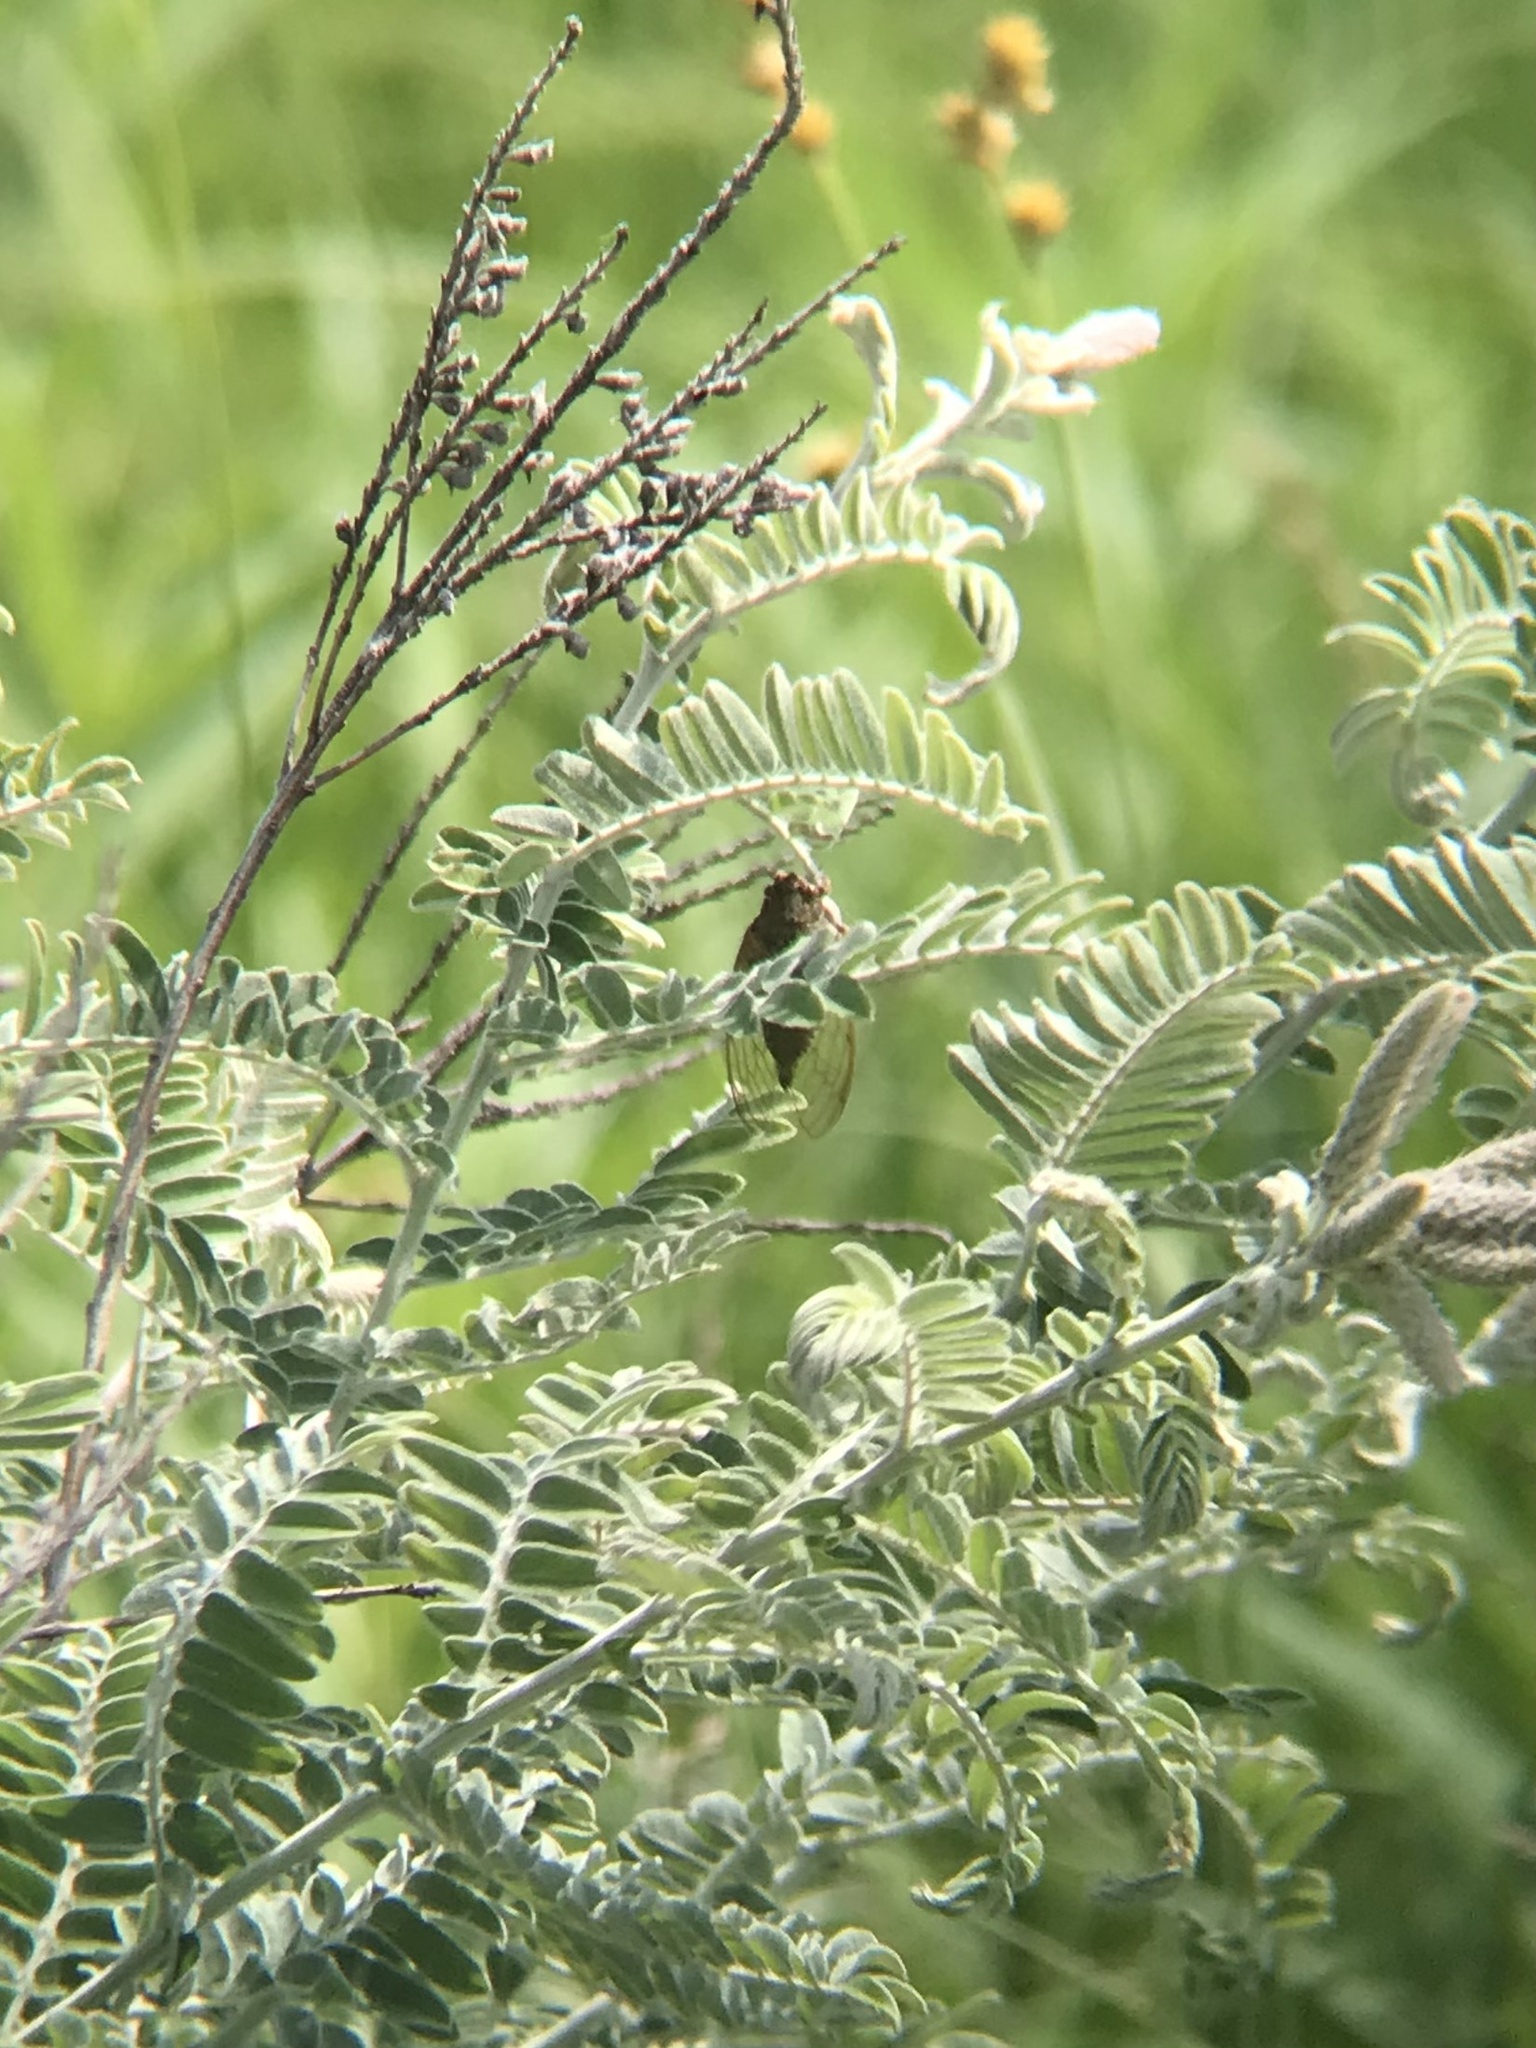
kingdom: Animalia
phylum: Arthropoda
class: Insecta
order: Hemiptera
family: Cicadidae
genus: Okanagana
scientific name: Okanagana balli
